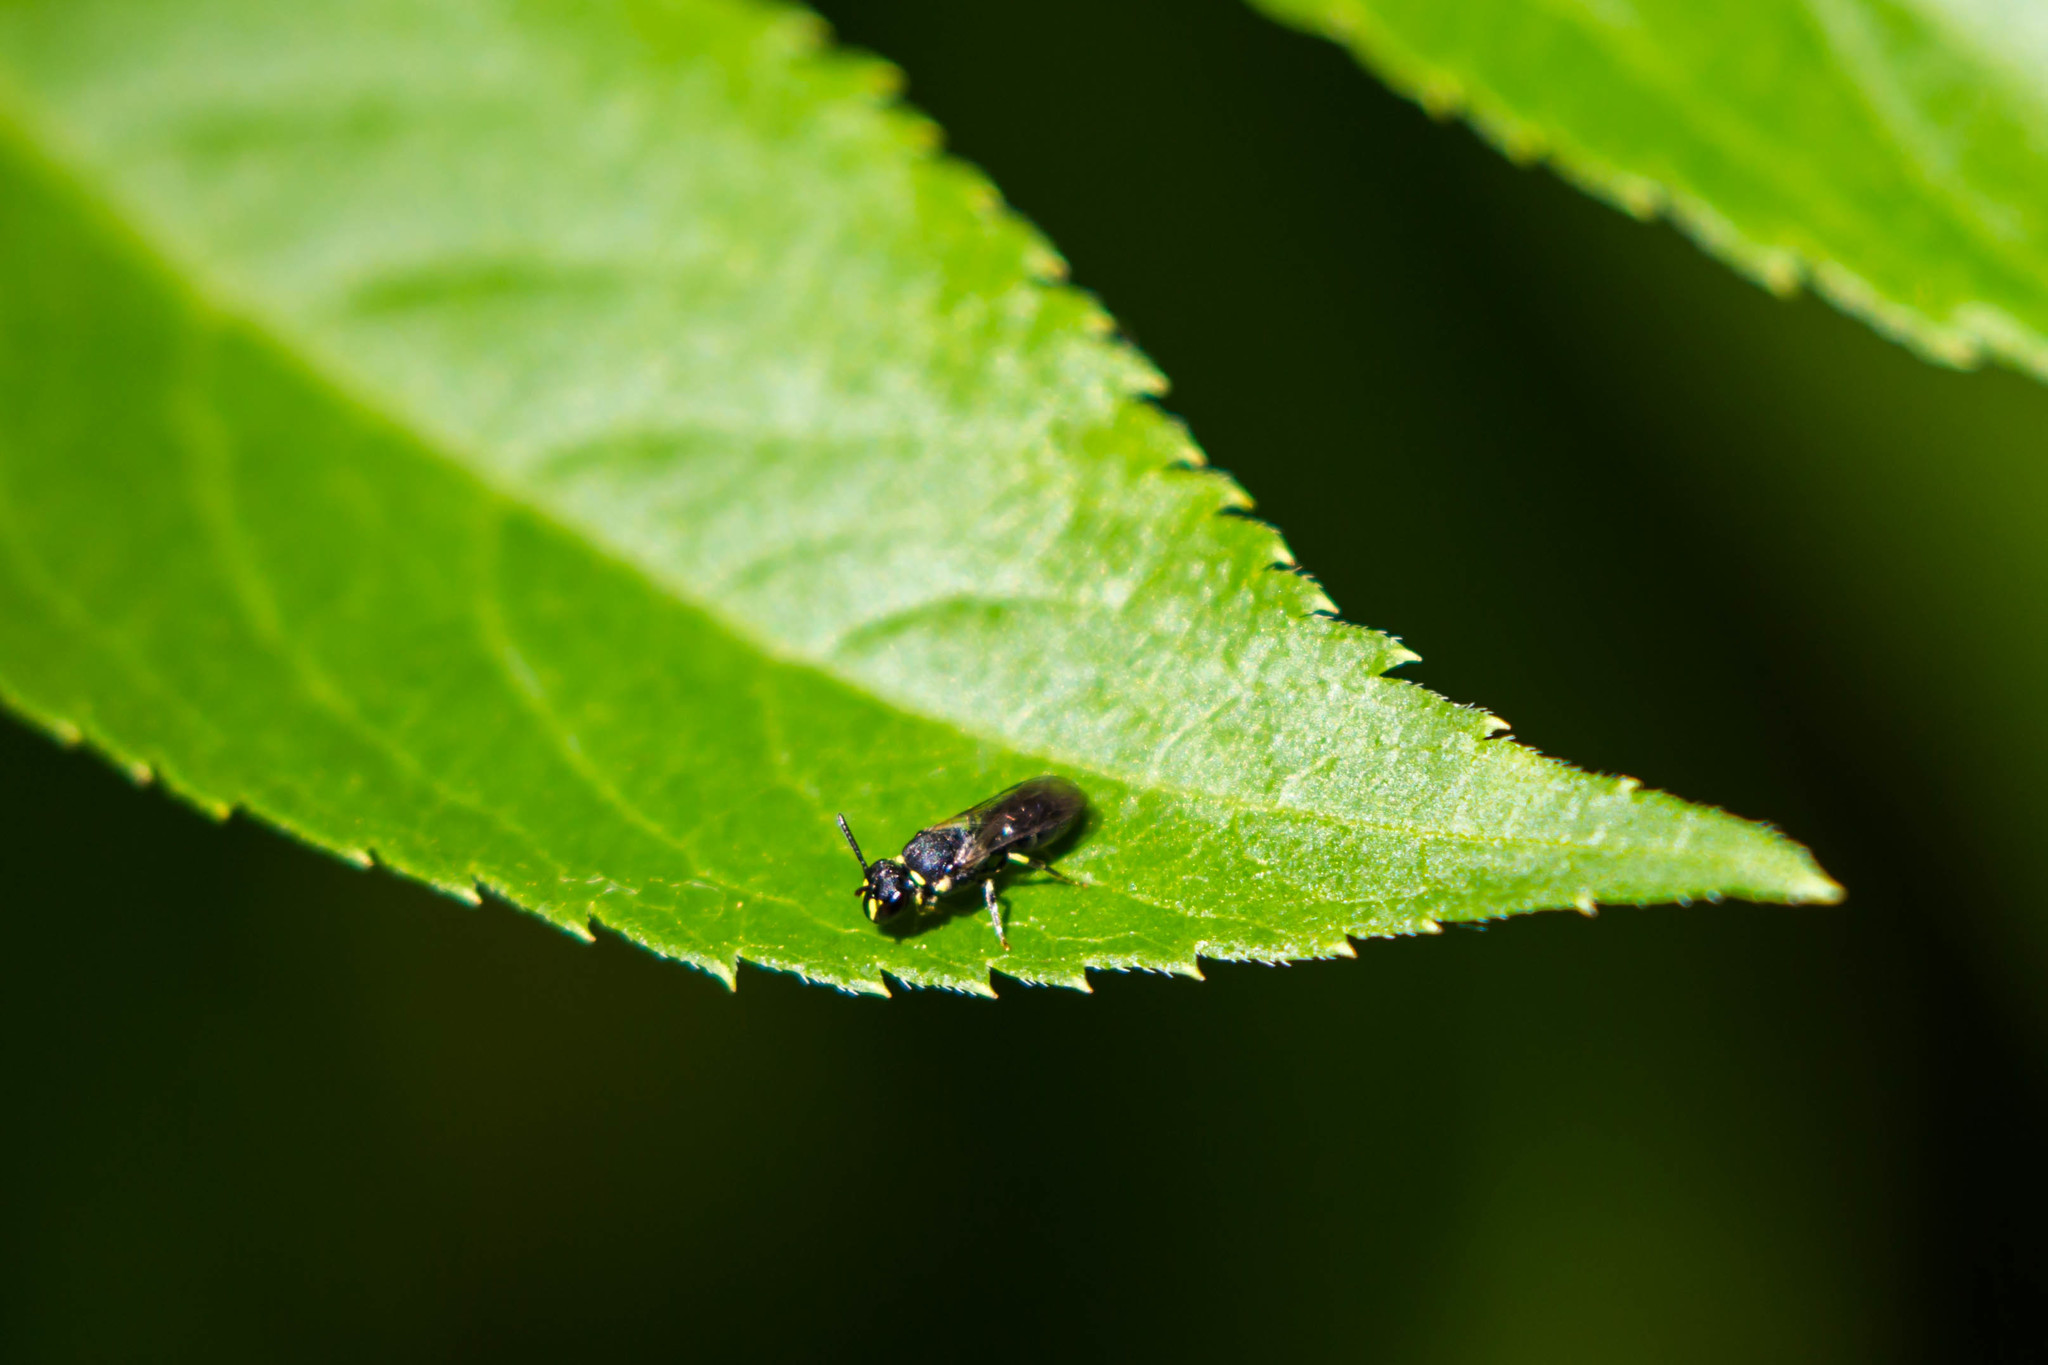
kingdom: Animalia
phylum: Arthropoda
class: Insecta
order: Hymenoptera
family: Colletidae
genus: Hylaeus
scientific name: Hylaeus modestus
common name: Yellow-faced bee
